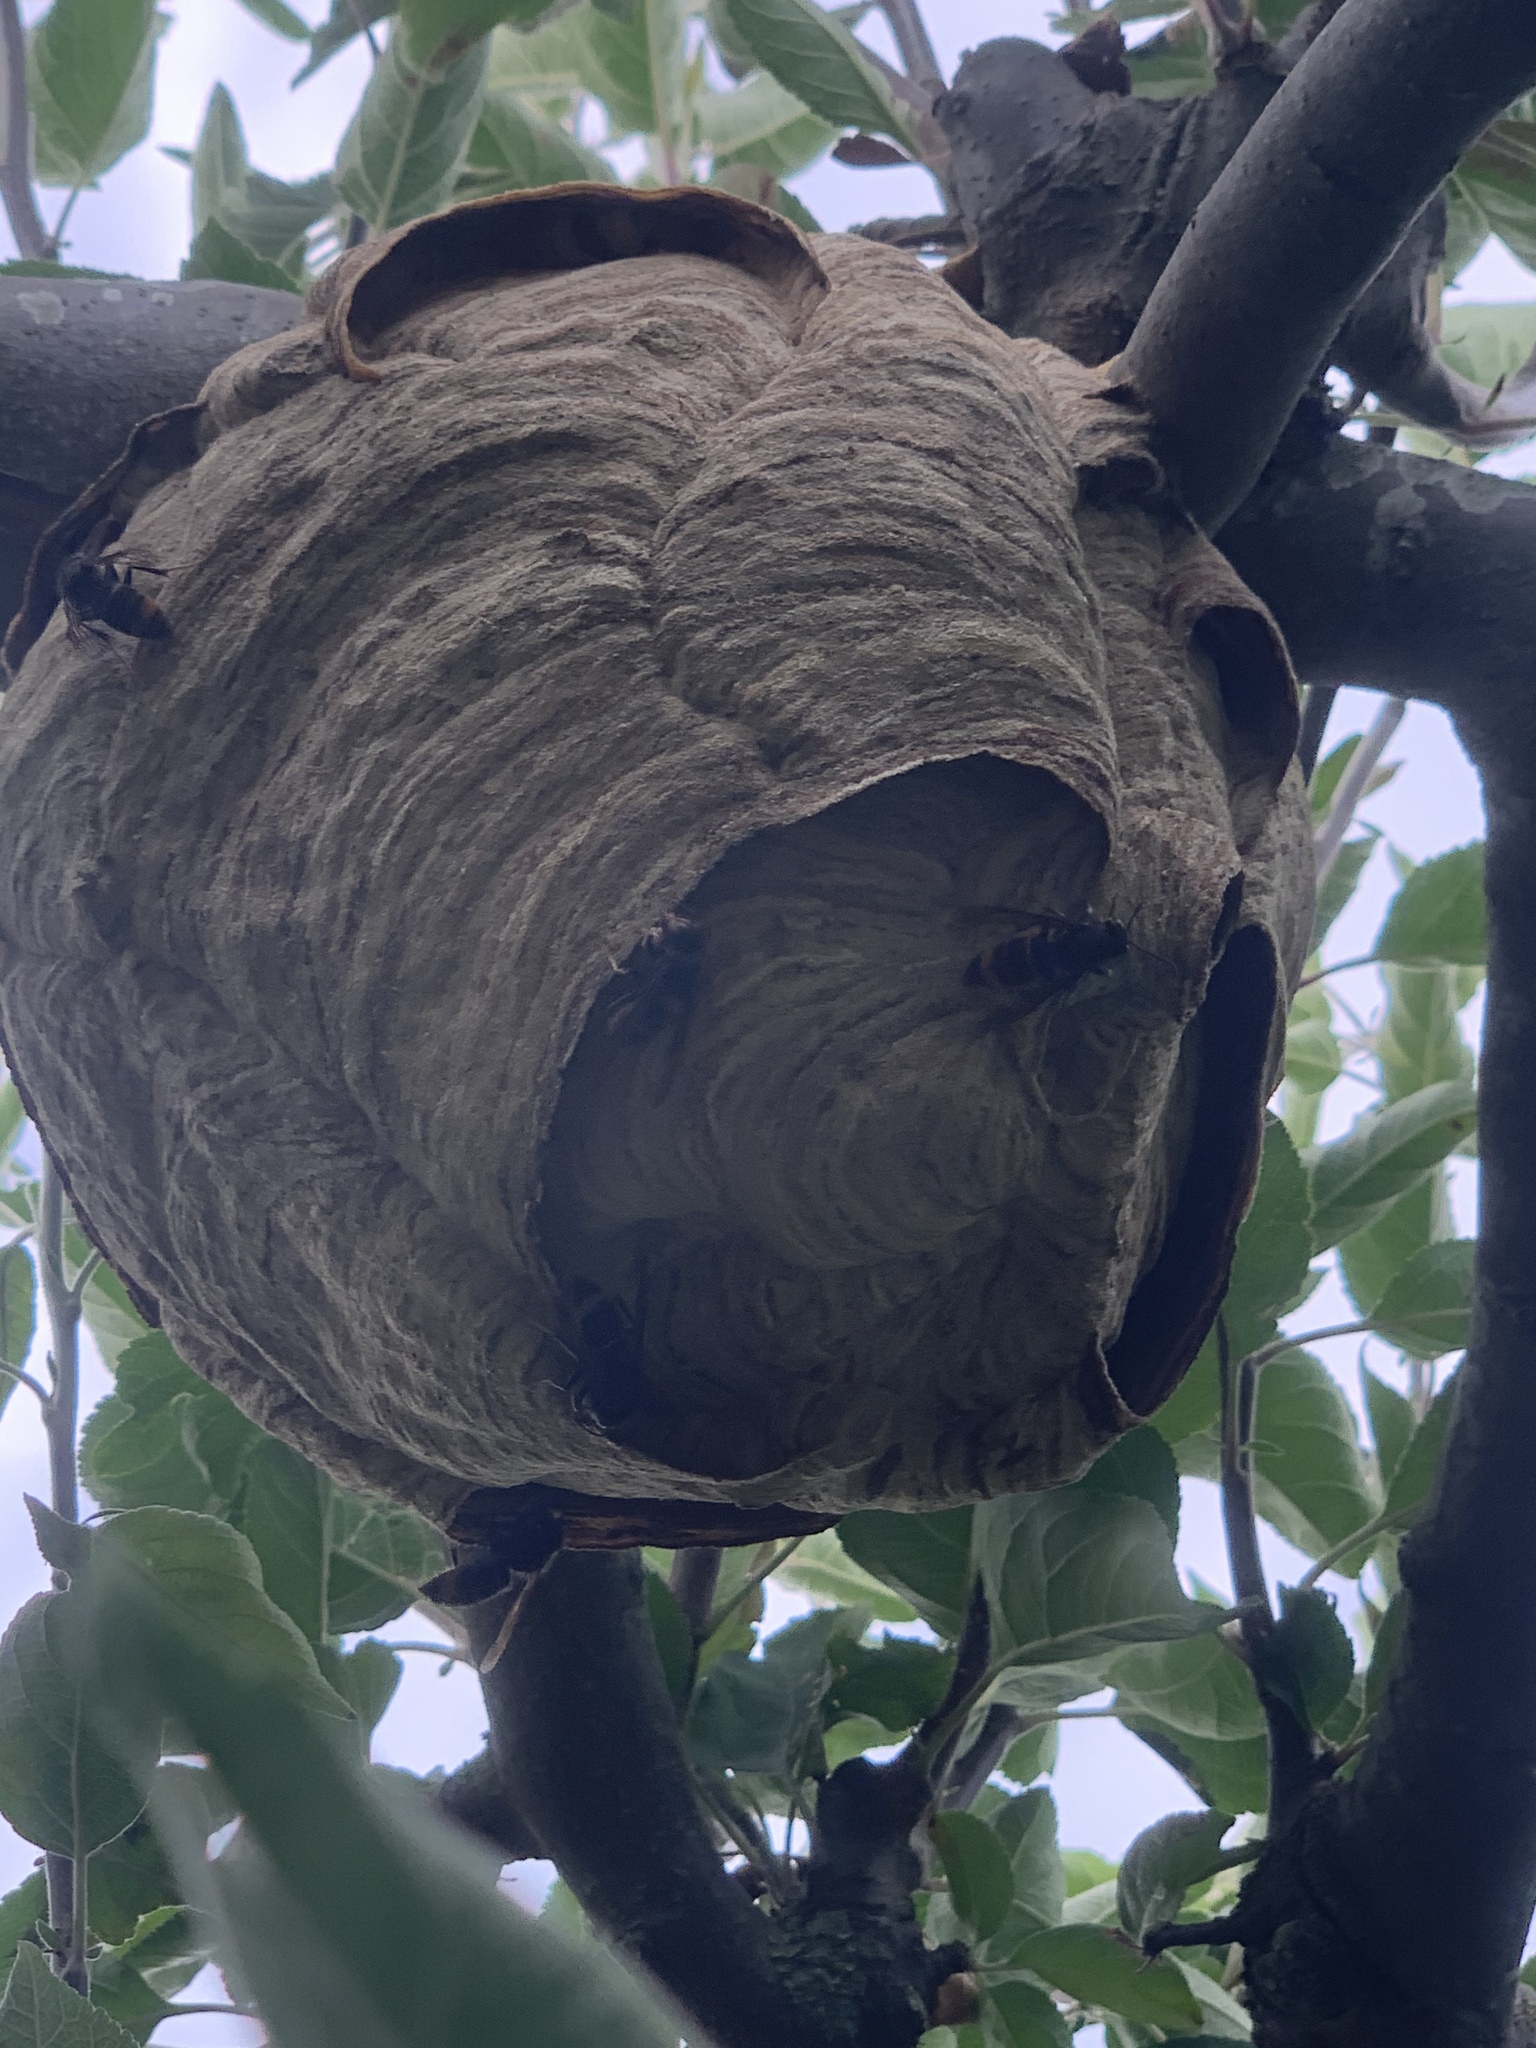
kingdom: Animalia
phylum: Arthropoda
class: Insecta
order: Hymenoptera
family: Vespidae
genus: Vespa
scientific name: Vespa velutina
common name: Asian hornet
